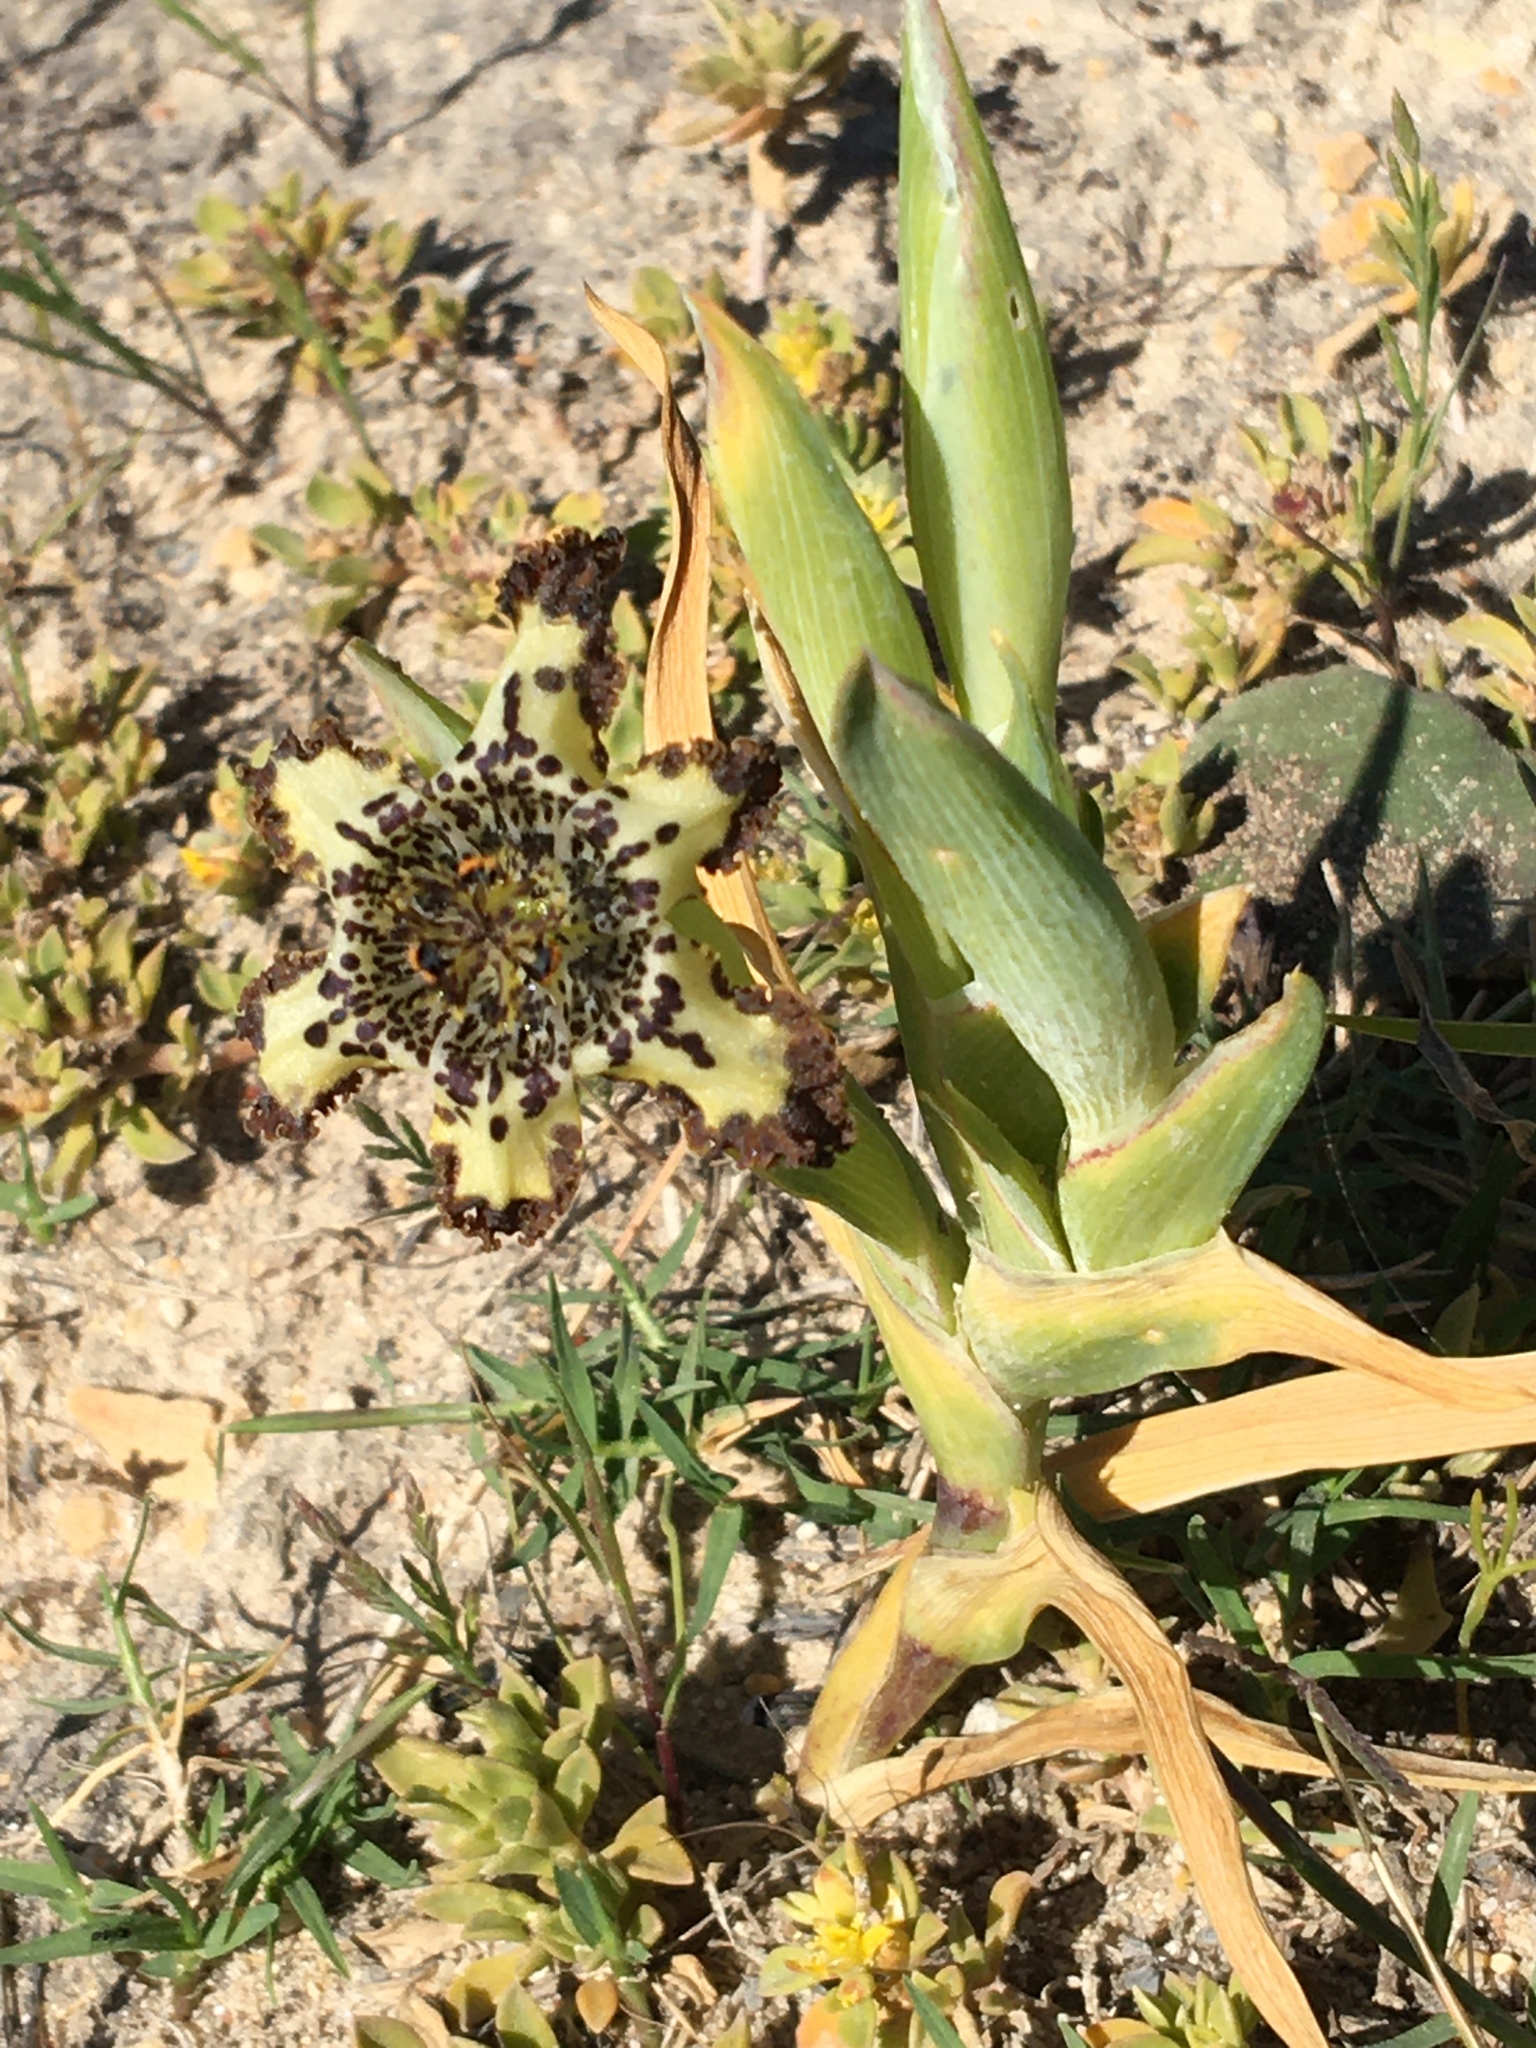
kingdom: Plantae
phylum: Tracheophyta
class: Liliopsida
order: Asparagales
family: Iridaceae
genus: Ferraria
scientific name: Ferraria crispa
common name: Black-flag
